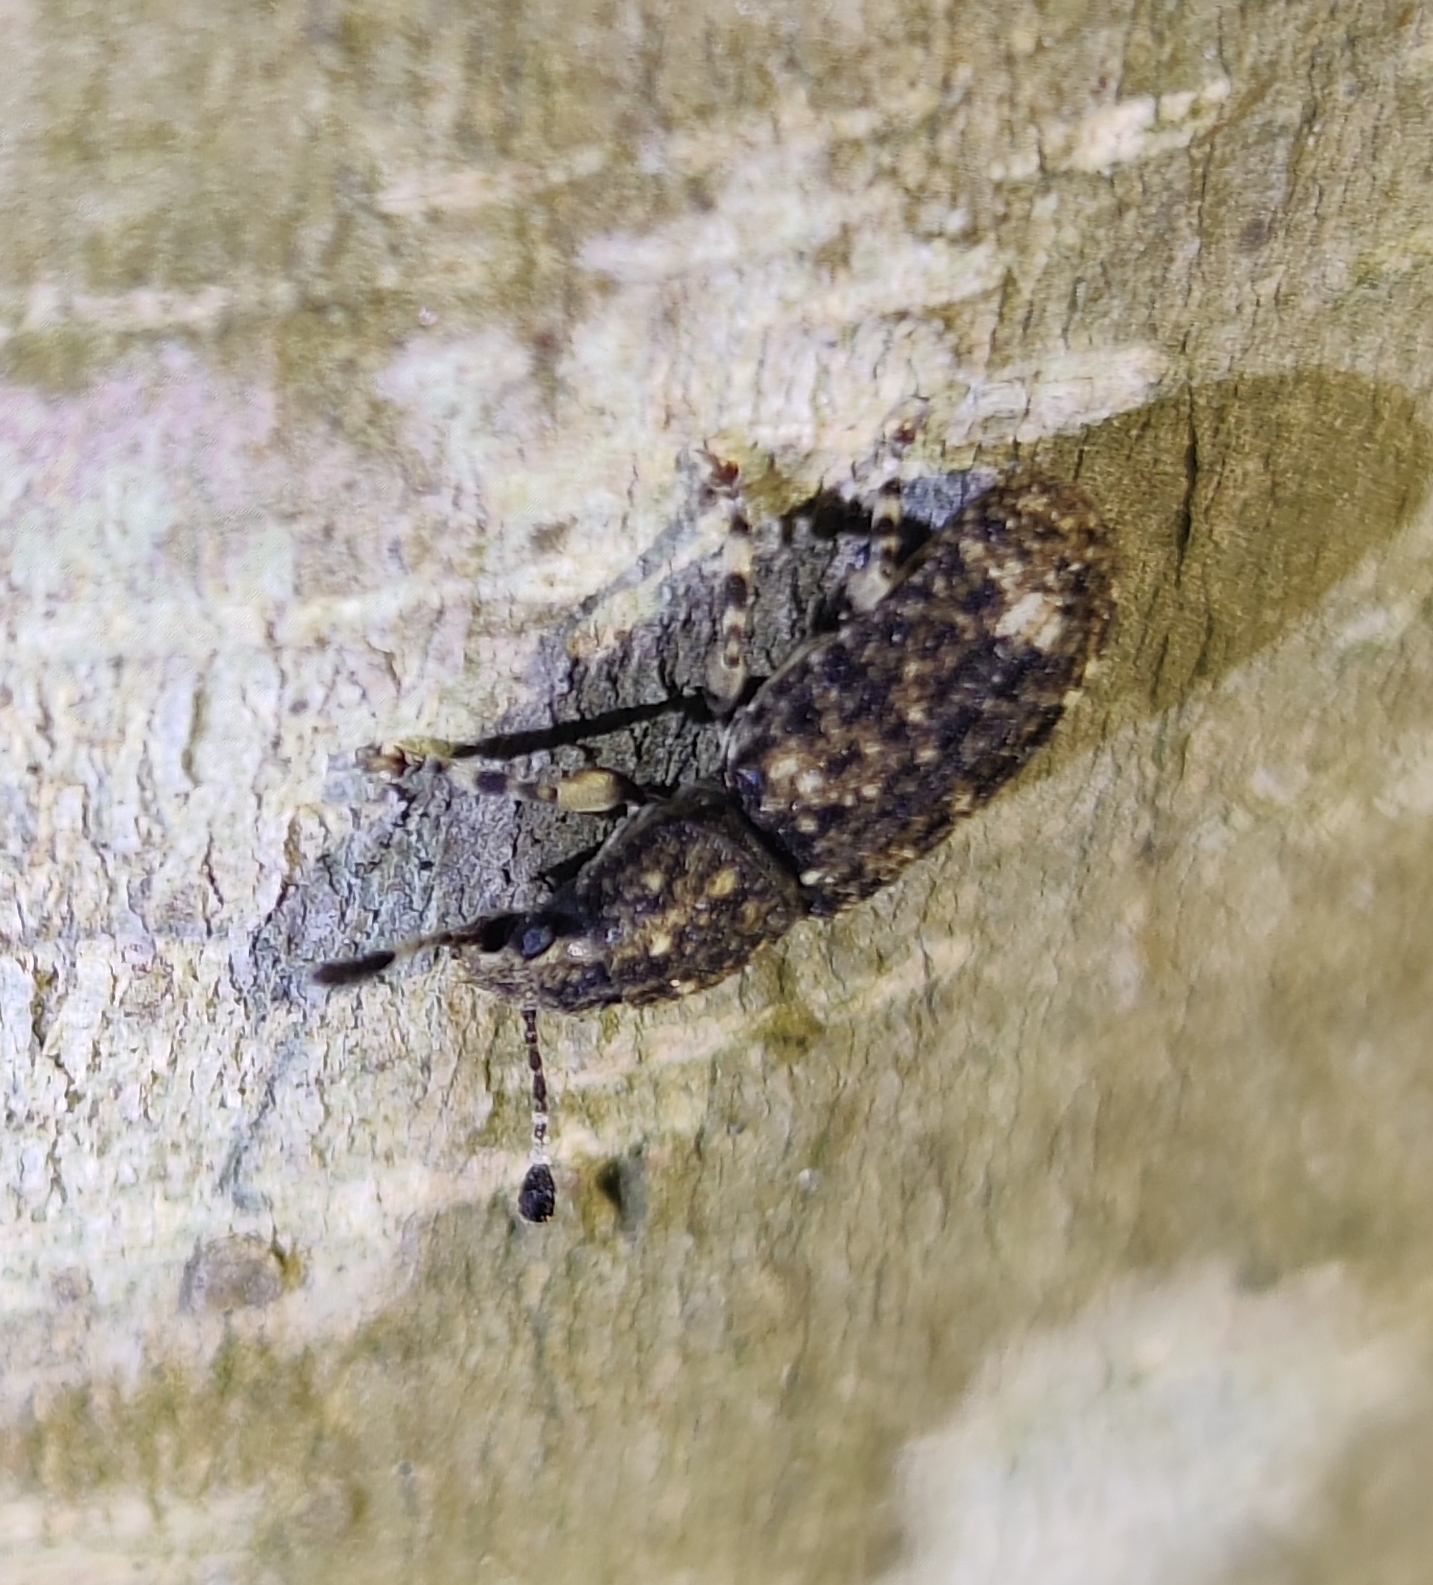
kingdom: Animalia
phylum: Arthropoda
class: Insecta
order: Coleoptera
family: Anthribidae
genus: Eucorynus
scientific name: Eucorynus crassicornis
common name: Fungus weevil
